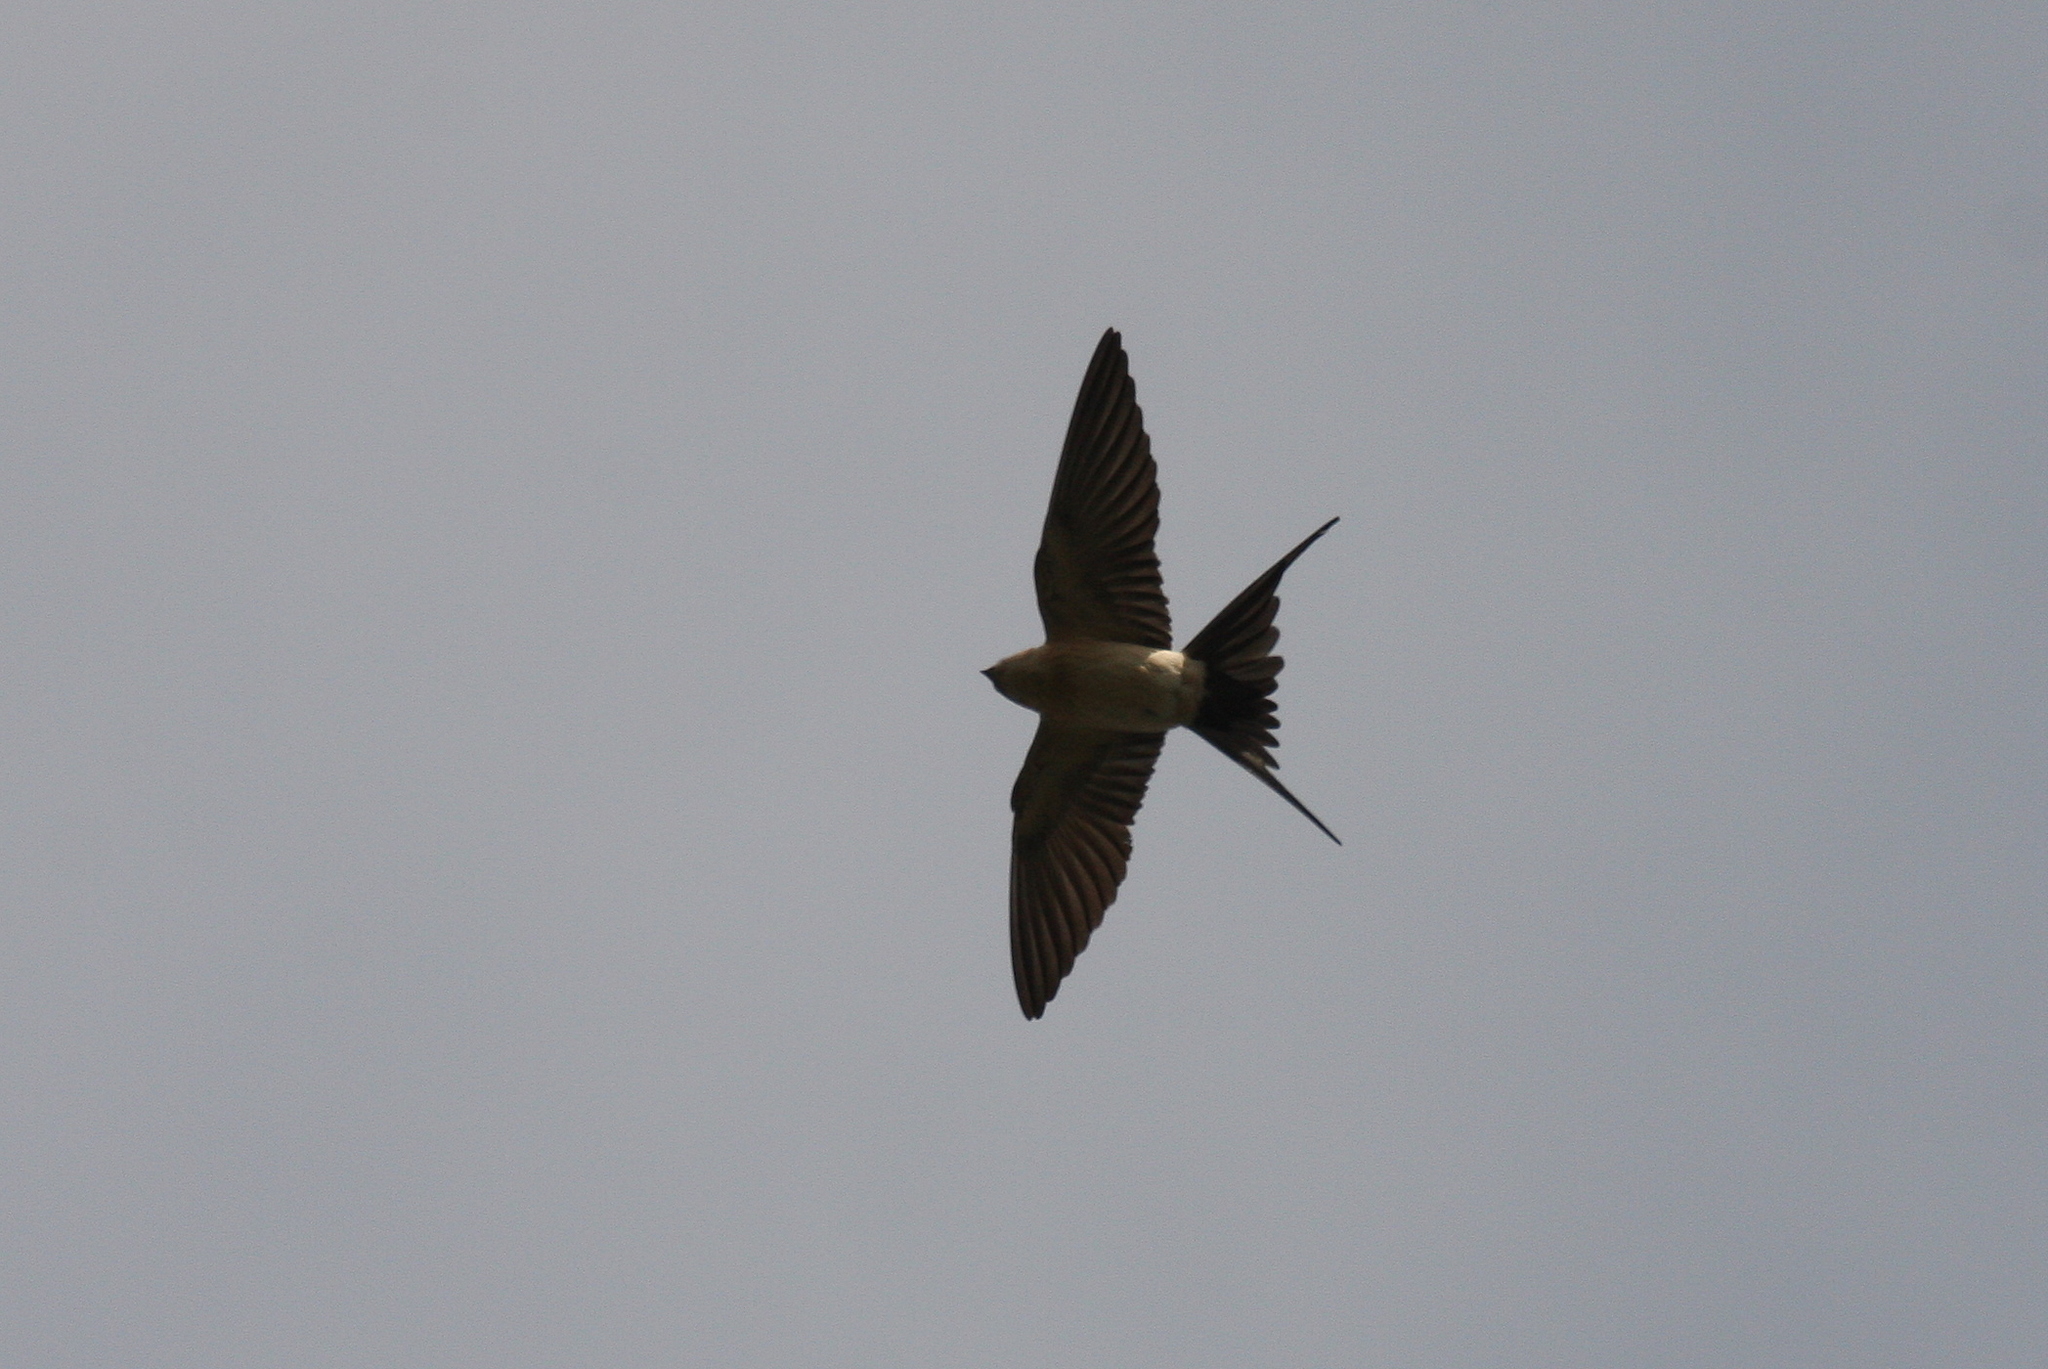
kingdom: Animalia
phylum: Chordata
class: Aves
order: Passeriformes
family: Hirundinidae
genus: Cecropis
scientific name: Cecropis daurica
